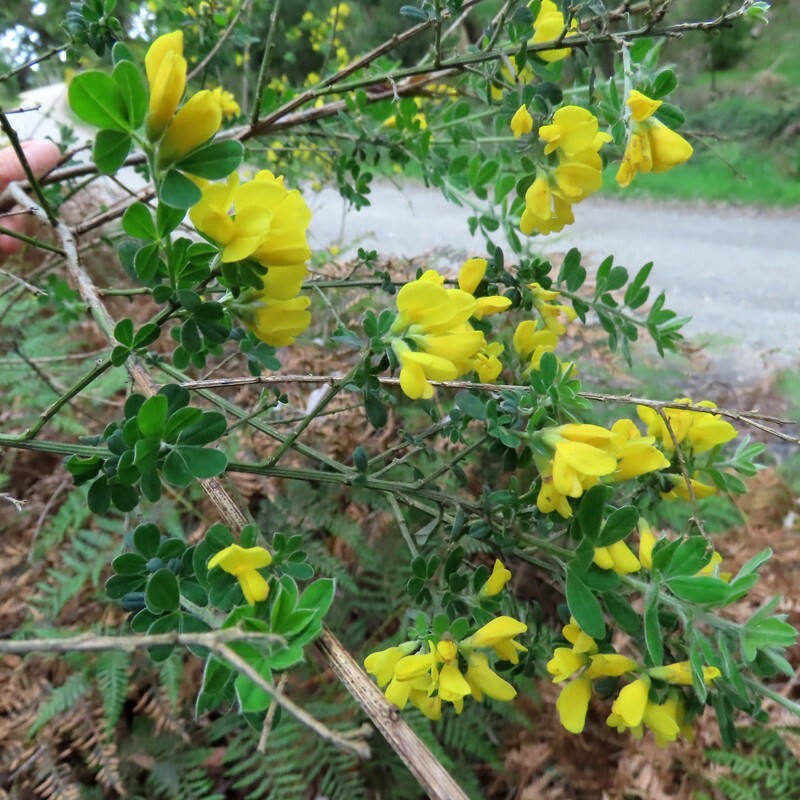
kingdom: Plantae
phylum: Tracheophyta
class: Magnoliopsida
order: Fabales
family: Fabaceae
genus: Genista
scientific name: Genista monspessulana
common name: Montpellier broom
